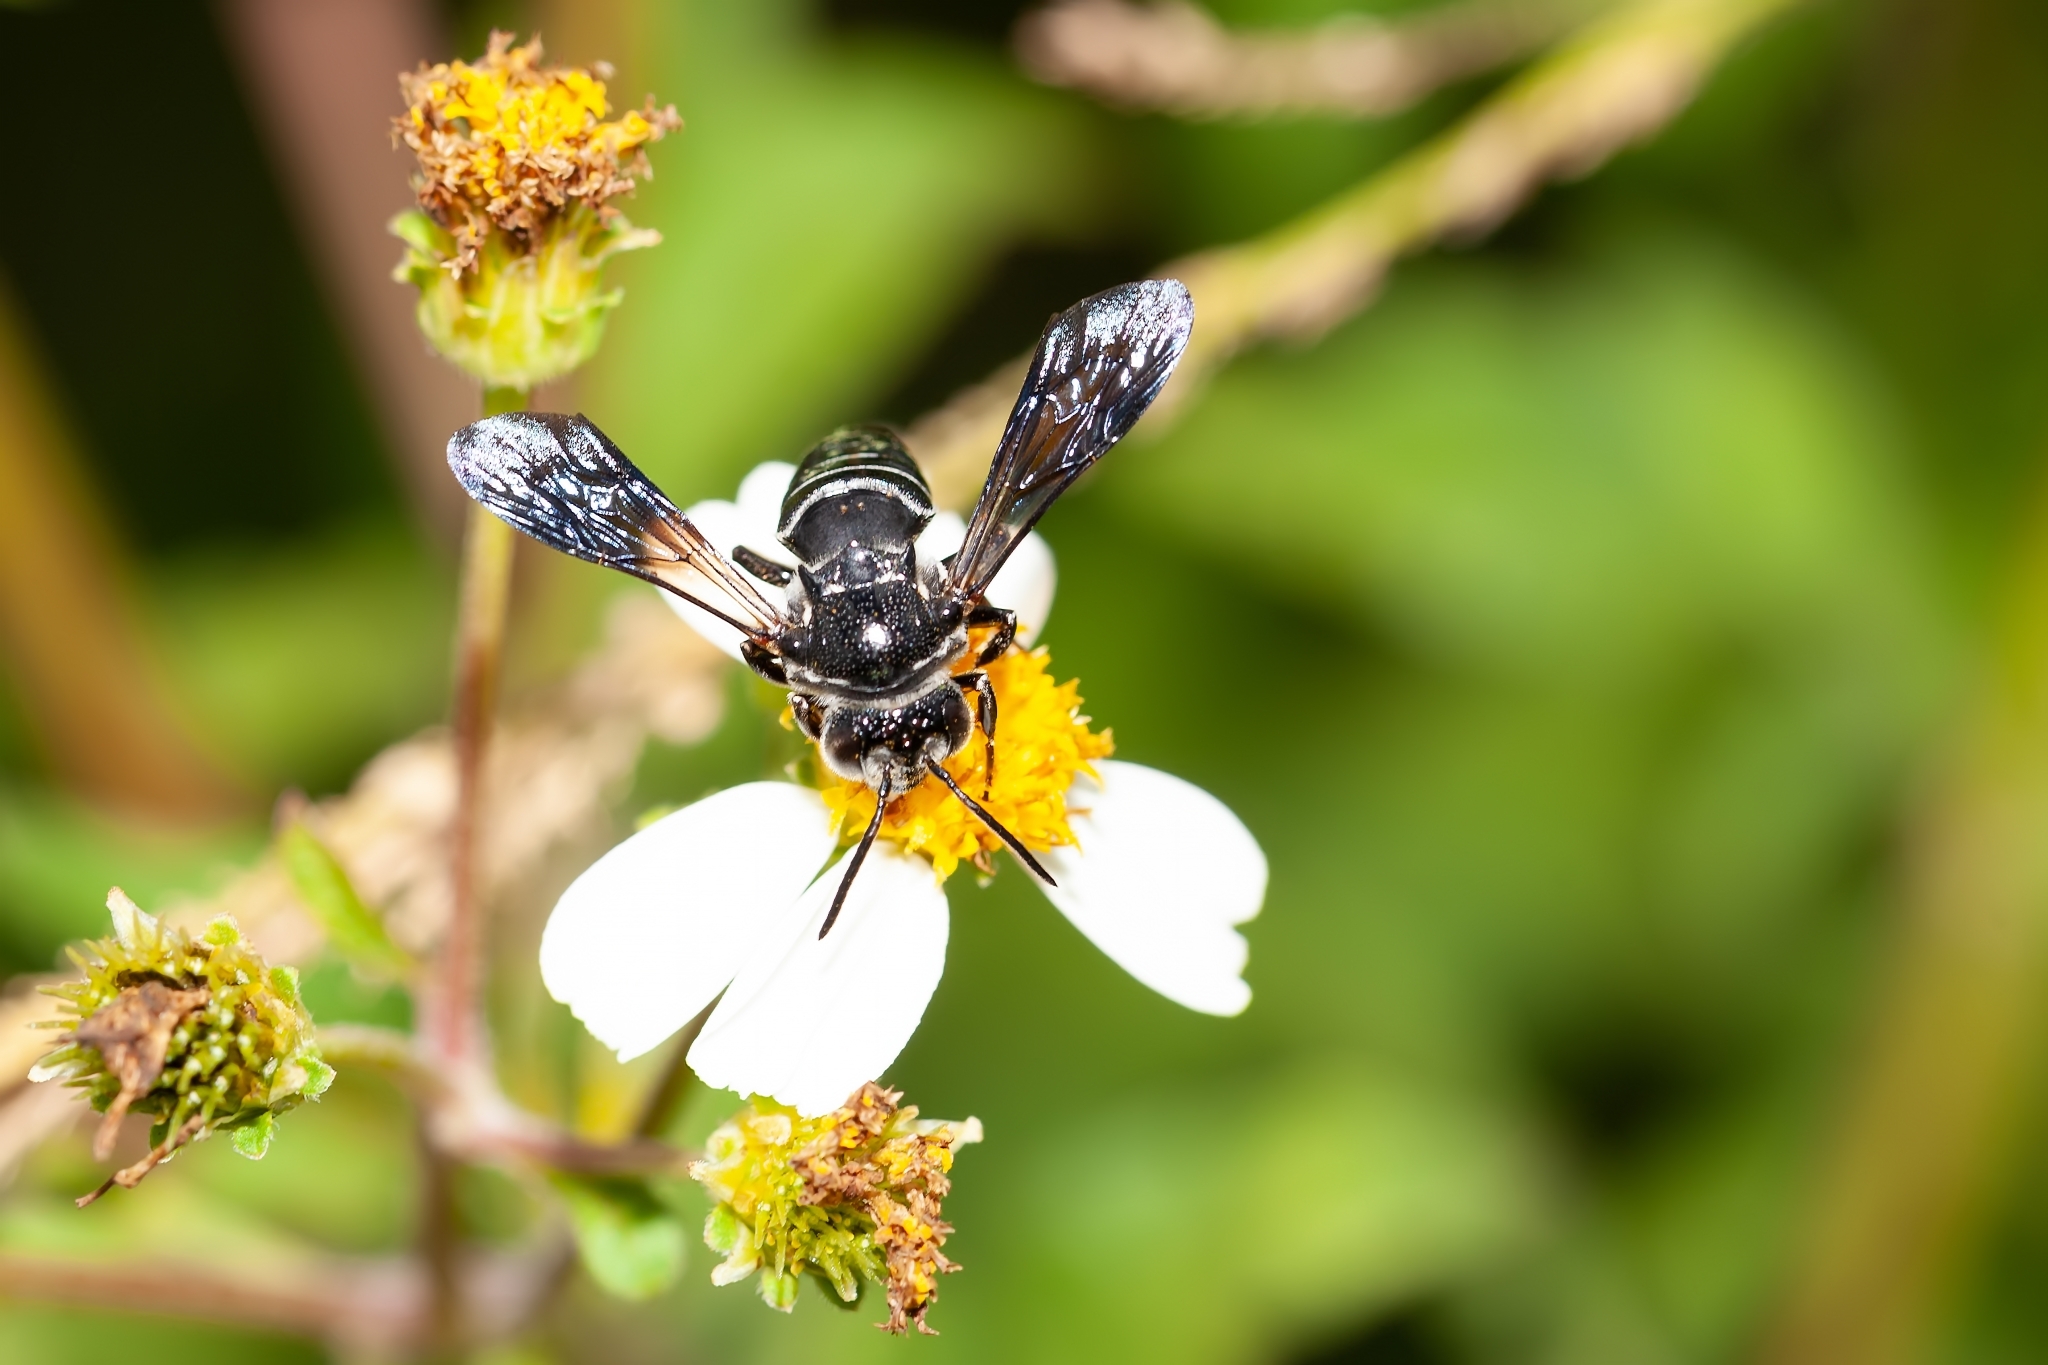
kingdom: Animalia
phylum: Arthropoda
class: Insecta
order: Hymenoptera
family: Megachilidae
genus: Coelioxys
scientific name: Coelioxys dolichos
